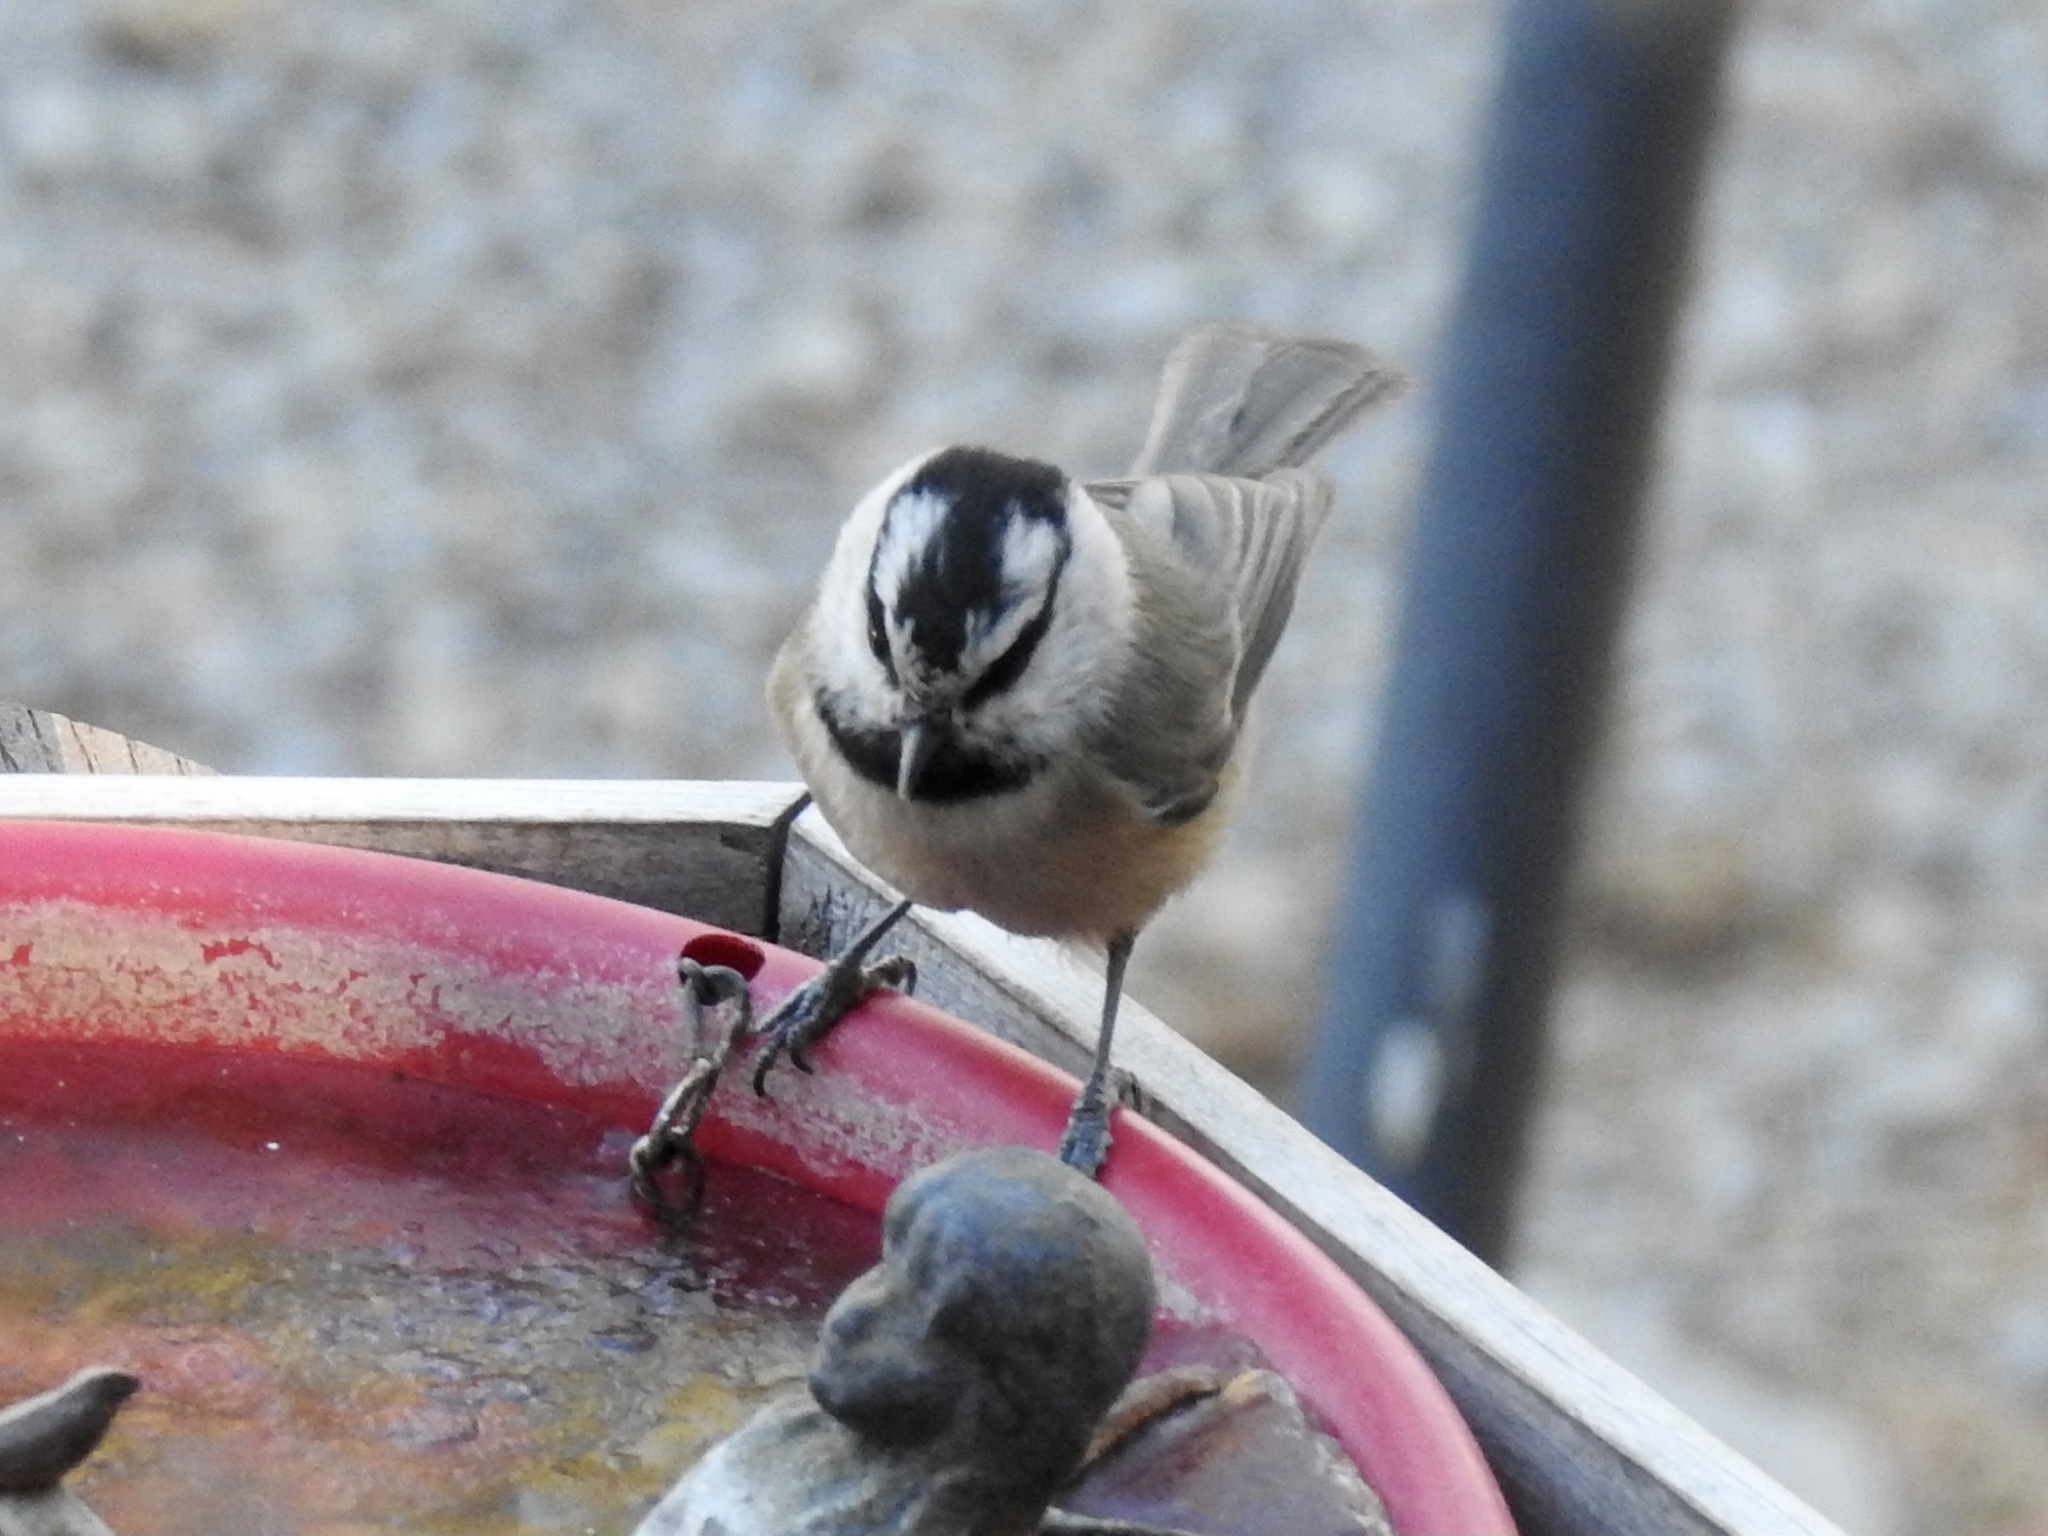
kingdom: Animalia
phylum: Chordata
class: Aves
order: Passeriformes
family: Paridae
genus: Poecile
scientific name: Poecile gambeli
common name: Mountain chickadee
